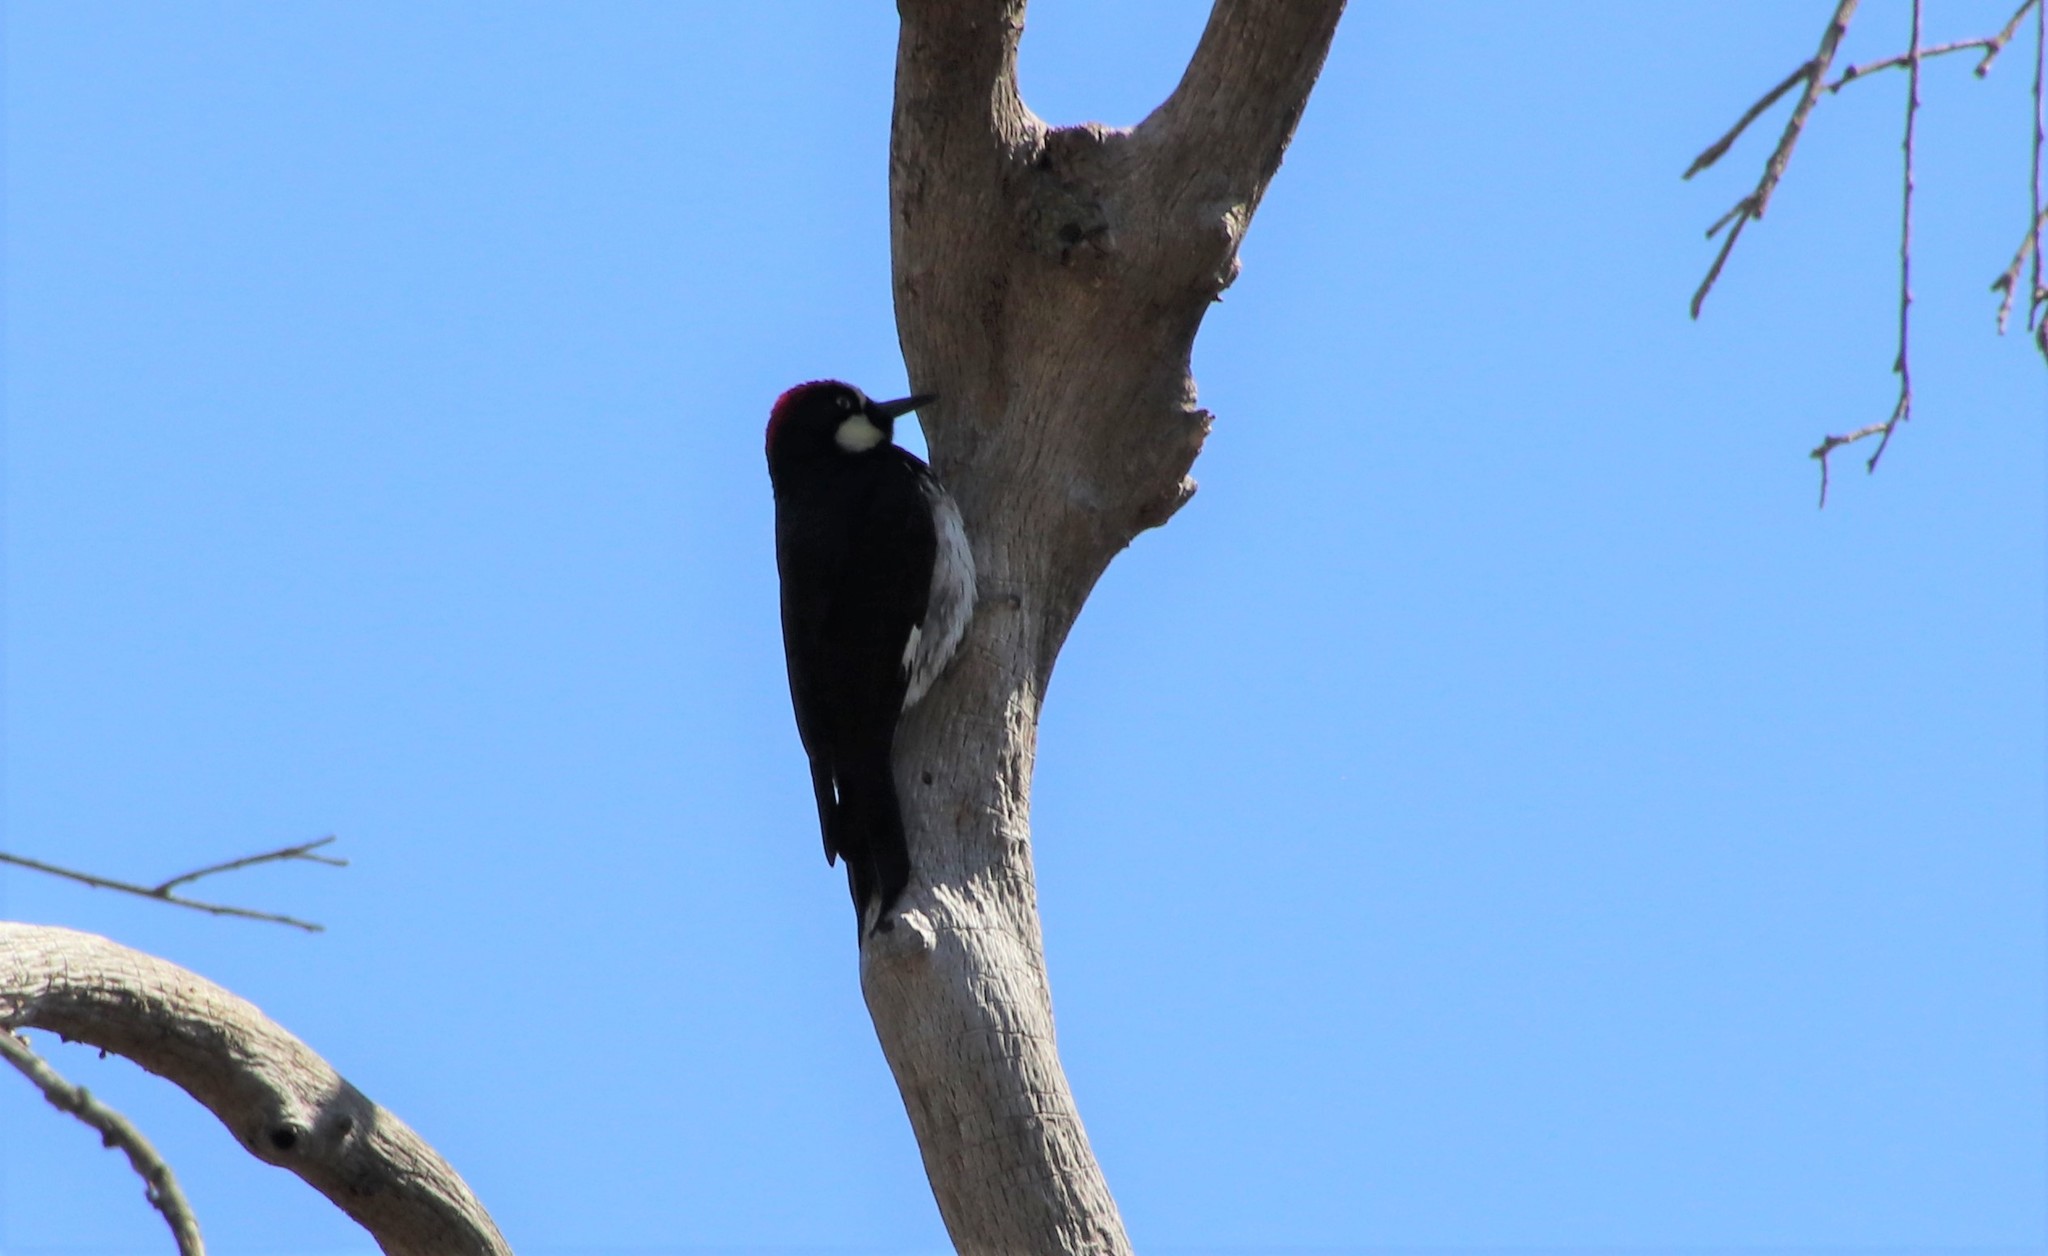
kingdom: Animalia
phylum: Chordata
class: Aves
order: Piciformes
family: Picidae
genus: Melanerpes
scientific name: Melanerpes formicivorus
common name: Acorn woodpecker
